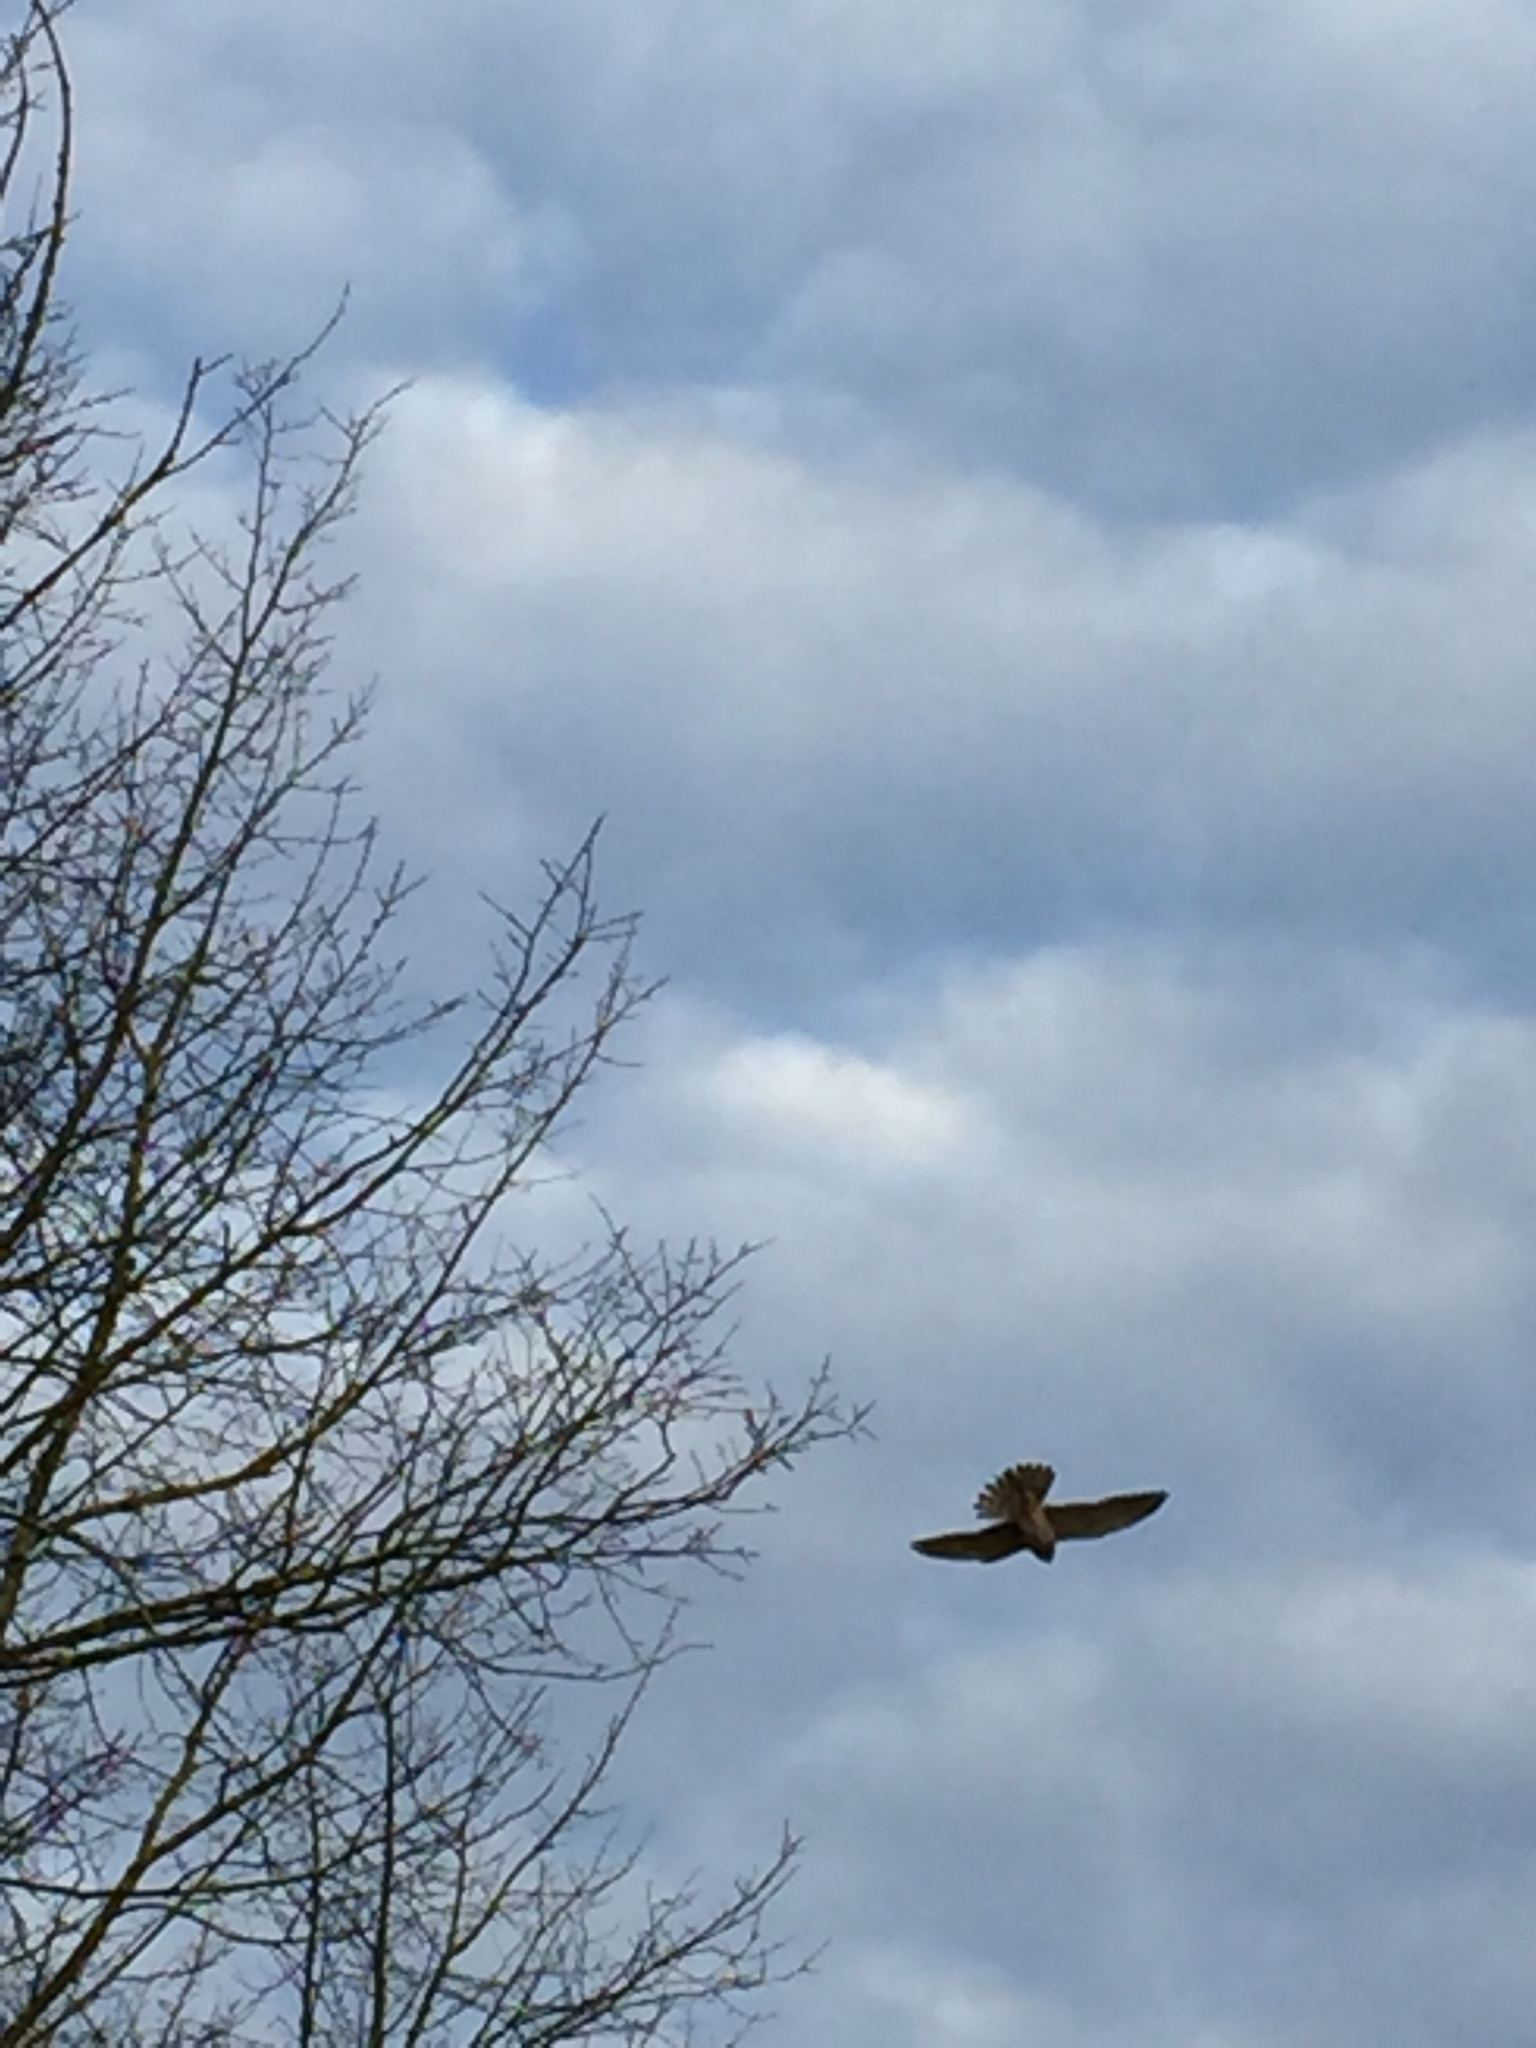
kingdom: Animalia
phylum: Chordata
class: Aves
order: Falconiformes
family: Falconidae
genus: Falco
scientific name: Falco tinnunculus
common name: Common kestrel
